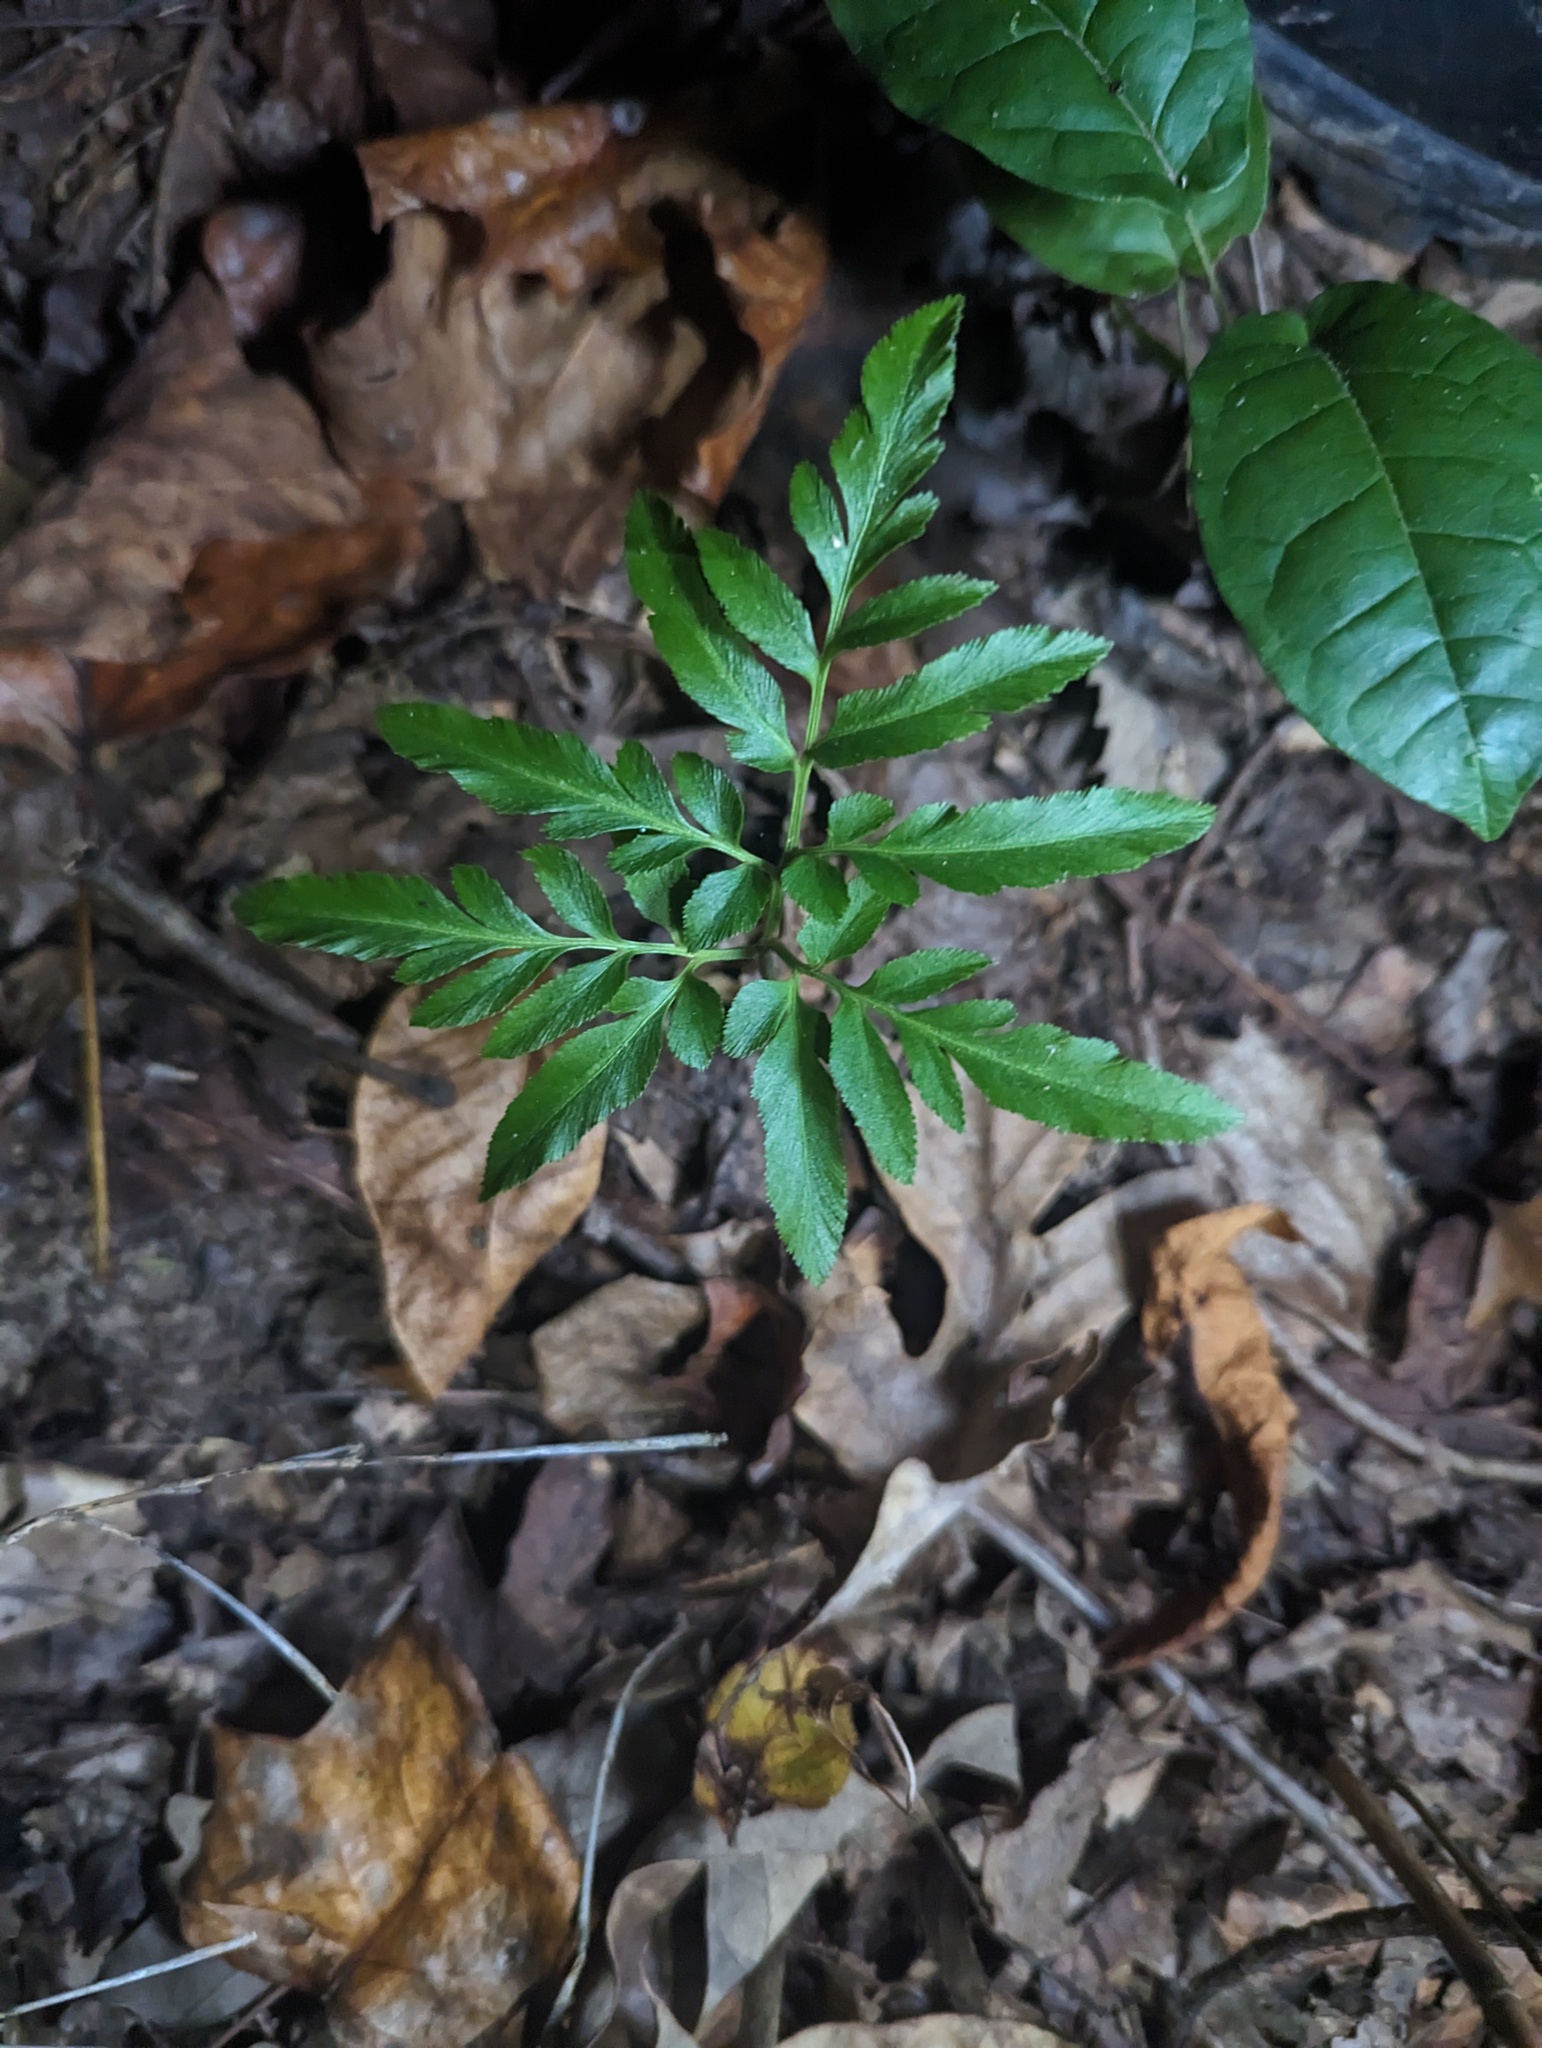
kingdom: Plantae
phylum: Tracheophyta
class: Polypodiopsida
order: Ophioglossales
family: Ophioglossaceae
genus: Sceptridium
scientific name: Sceptridium dissectum
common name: Cut-leaved grapefern
